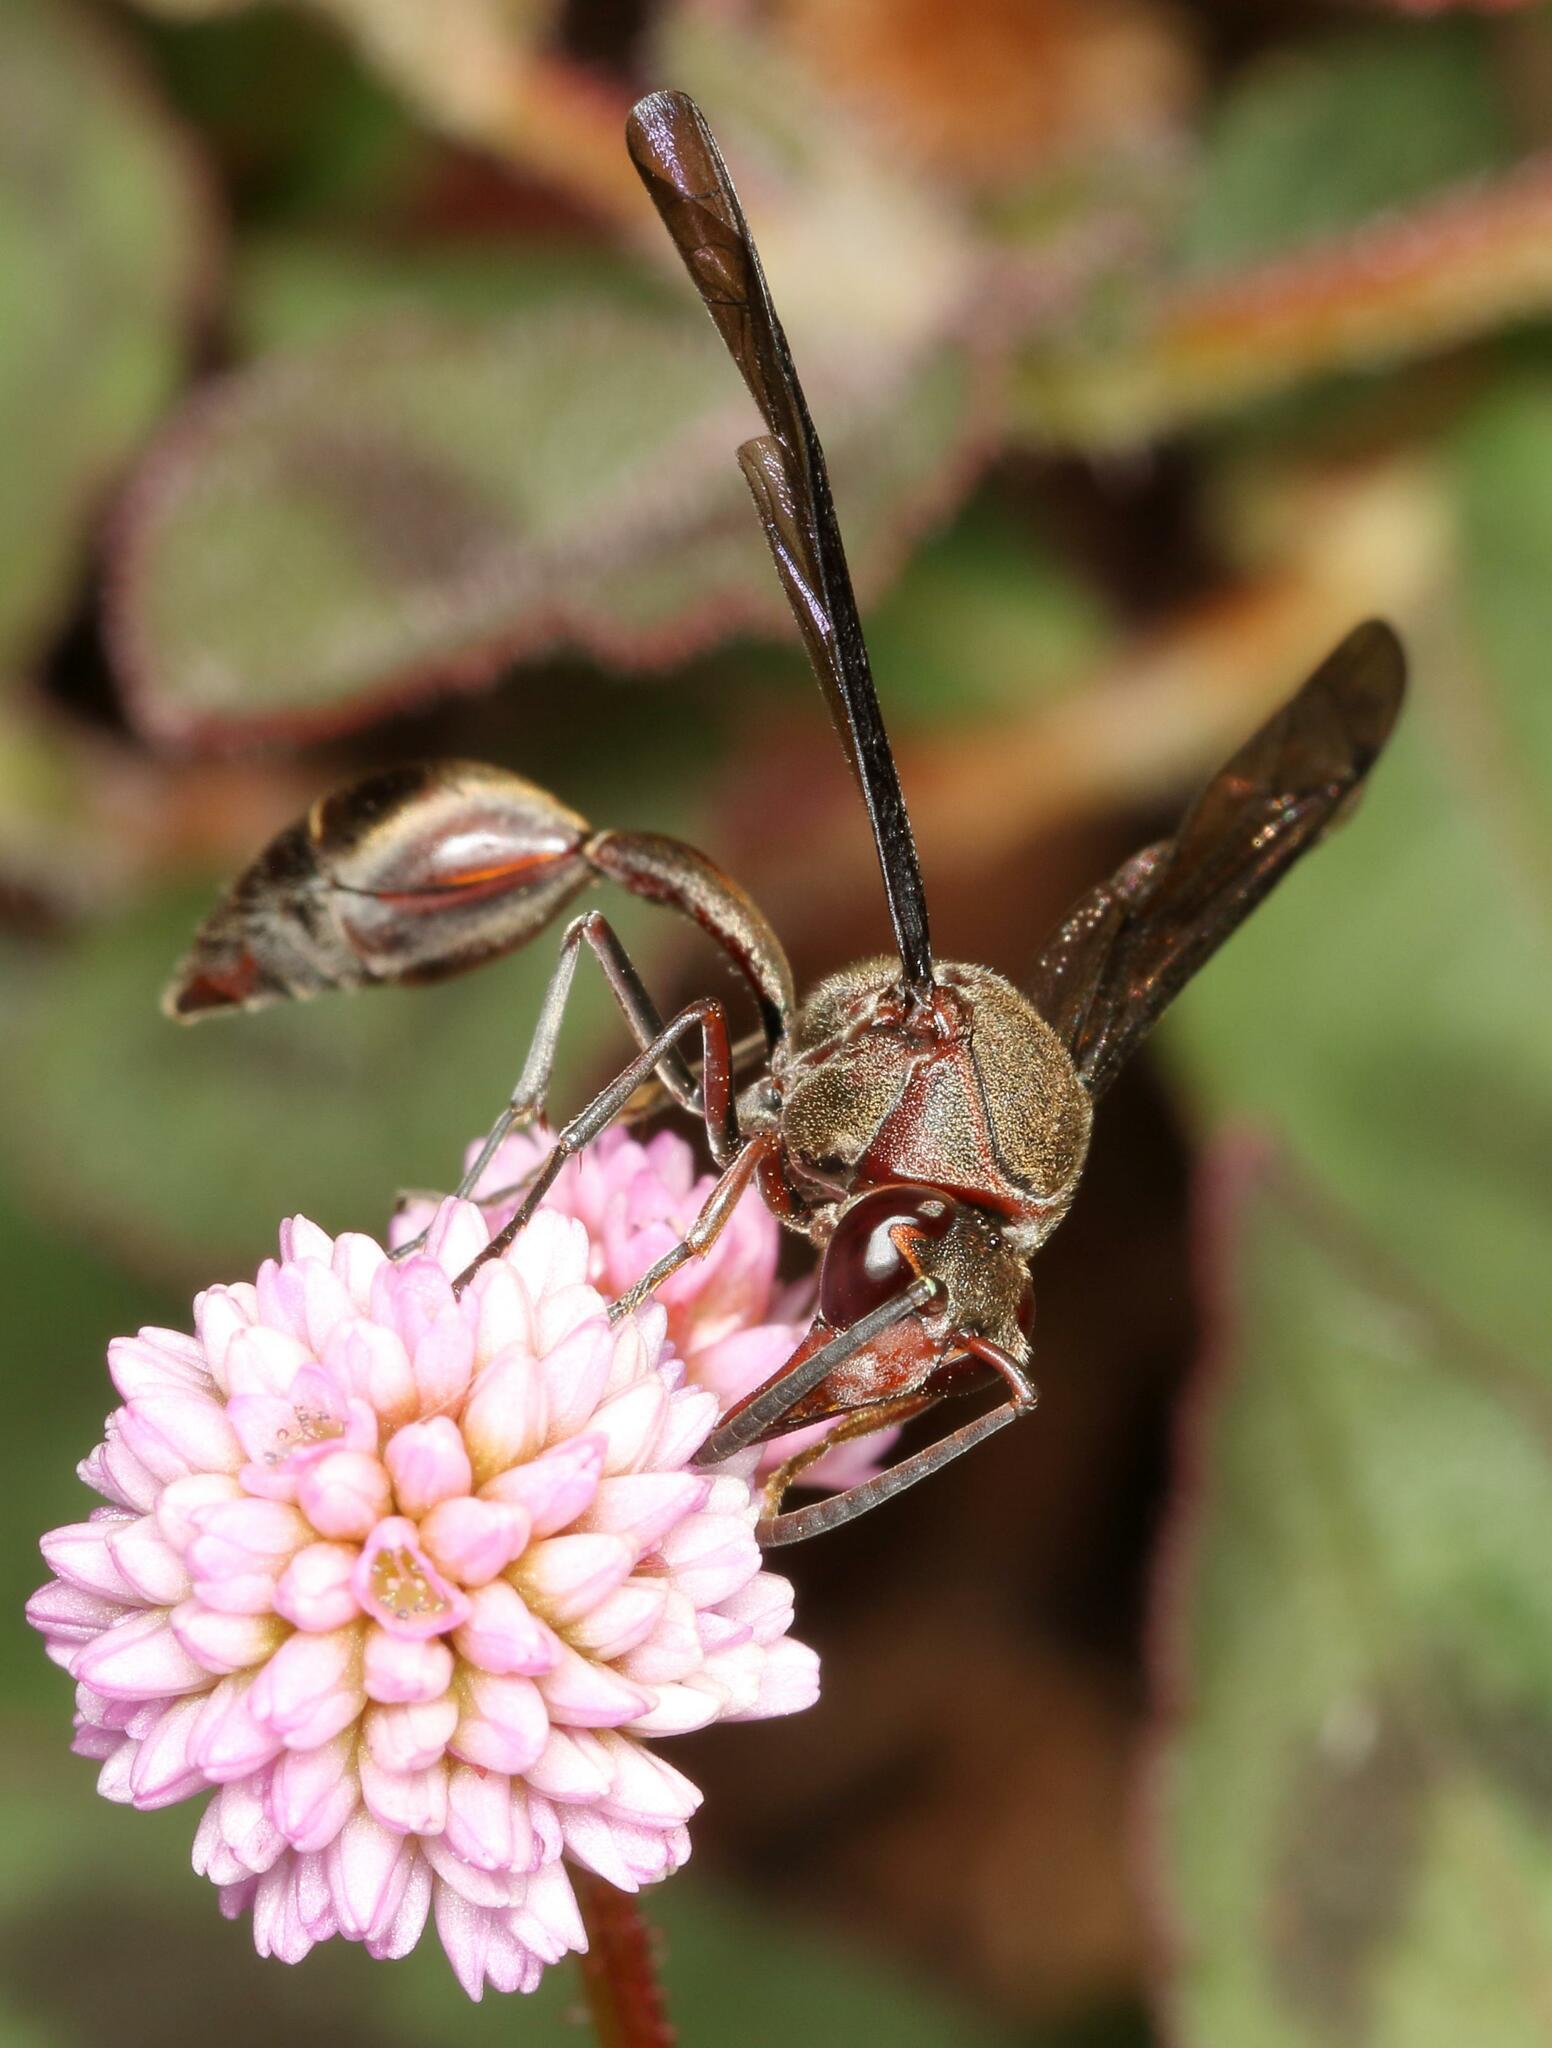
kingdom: Animalia
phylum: Arthropoda
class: Insecta
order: Hymenoptera
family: Eumenidae
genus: Afreumenes
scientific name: Afreumenes
